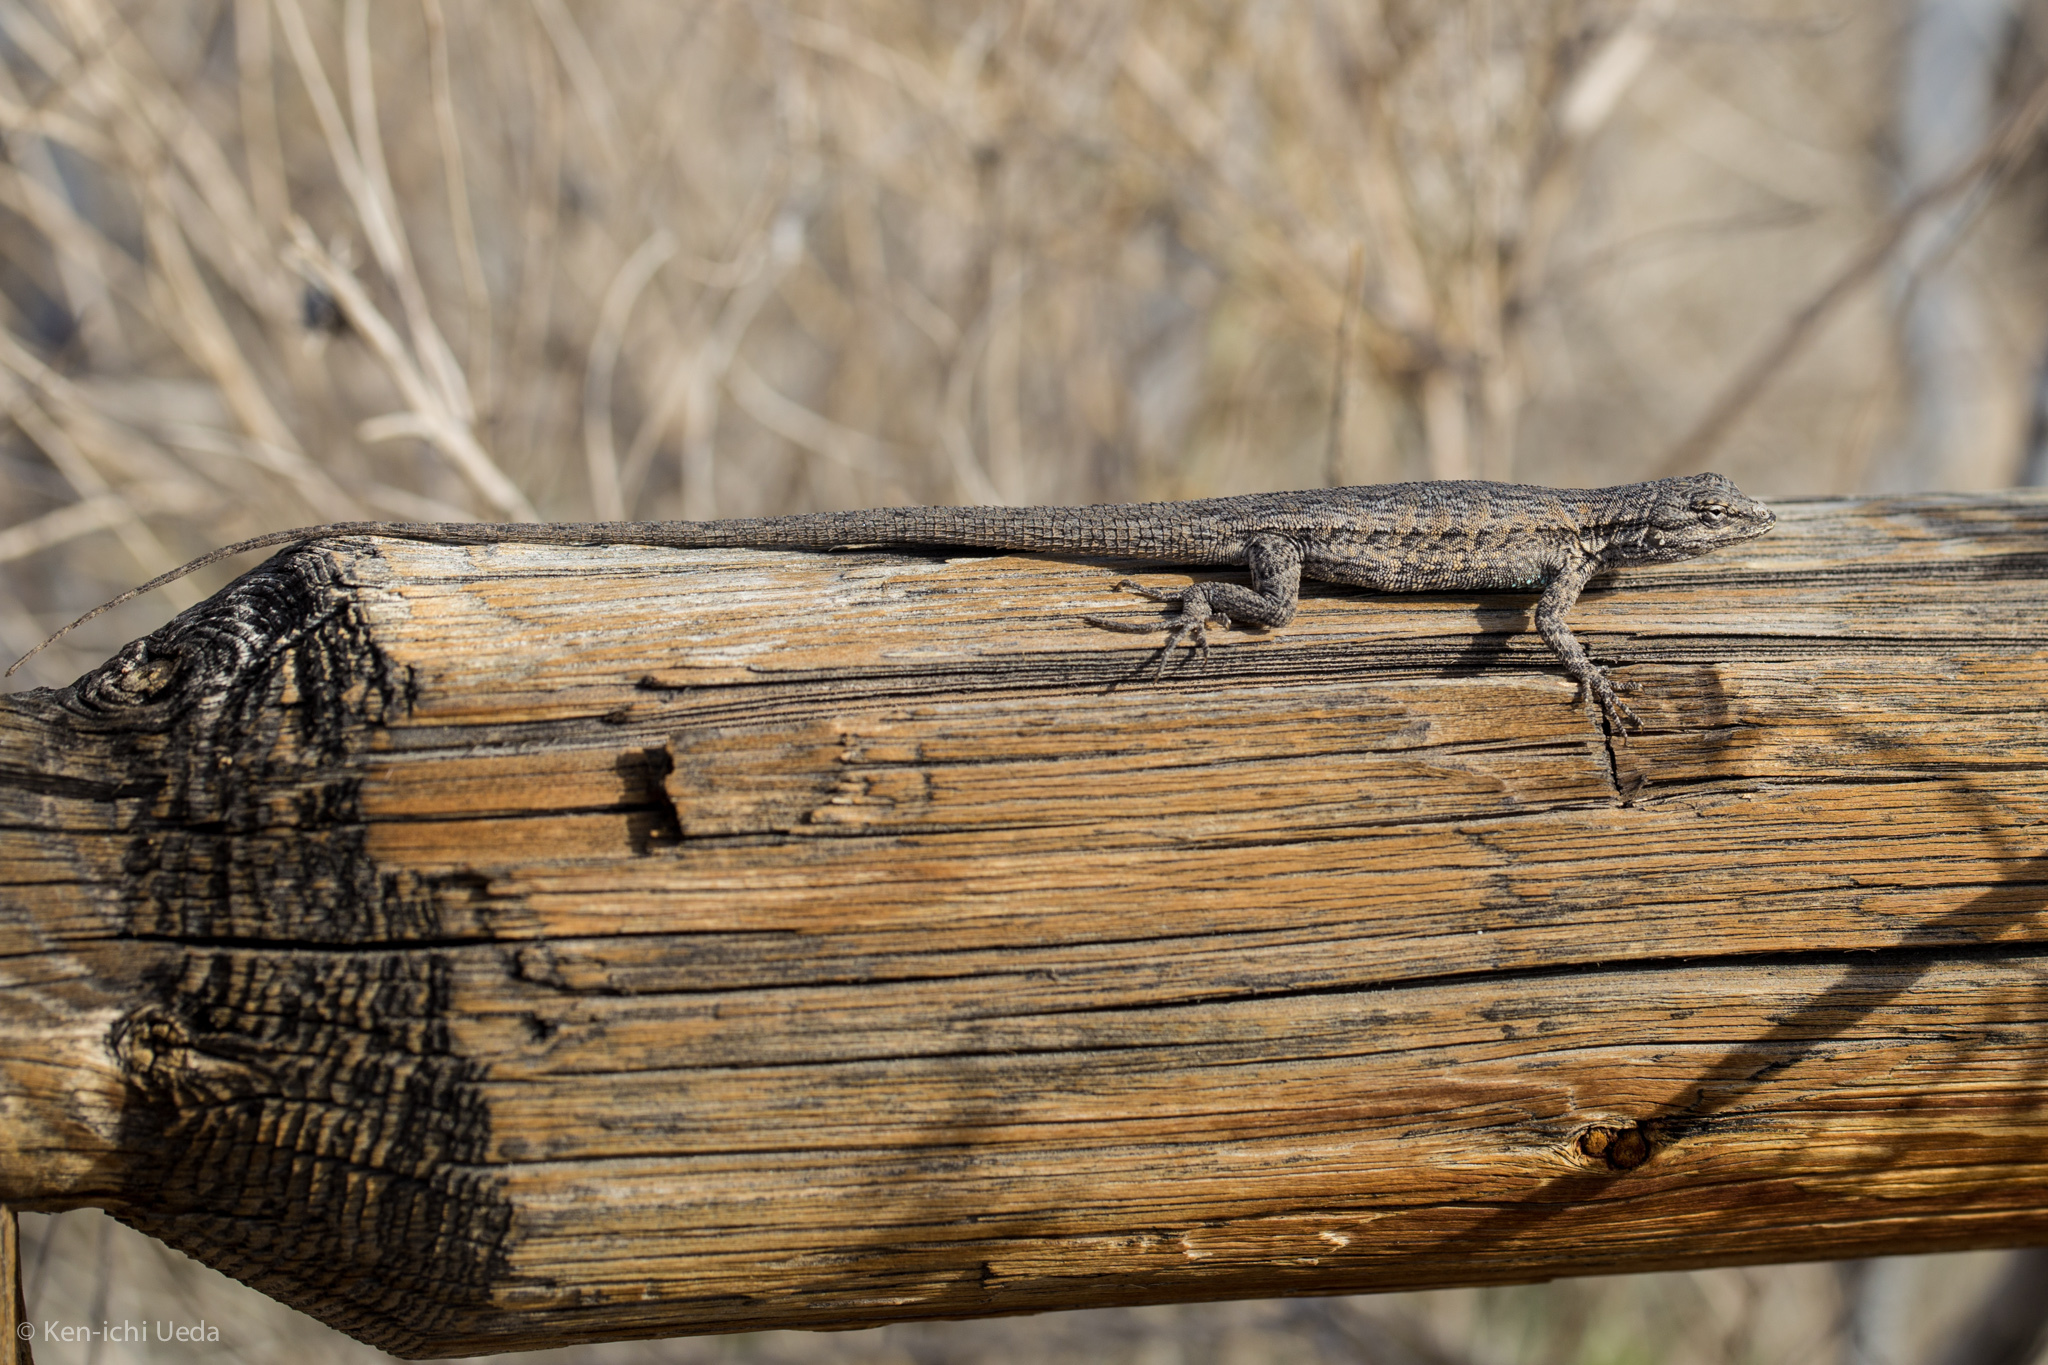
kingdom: Animalia
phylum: Chordata
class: Squamata
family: Phrynosomatidae
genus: Urosaurus
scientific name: Urosaurus graciosus
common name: Long-tailed brush lizard
